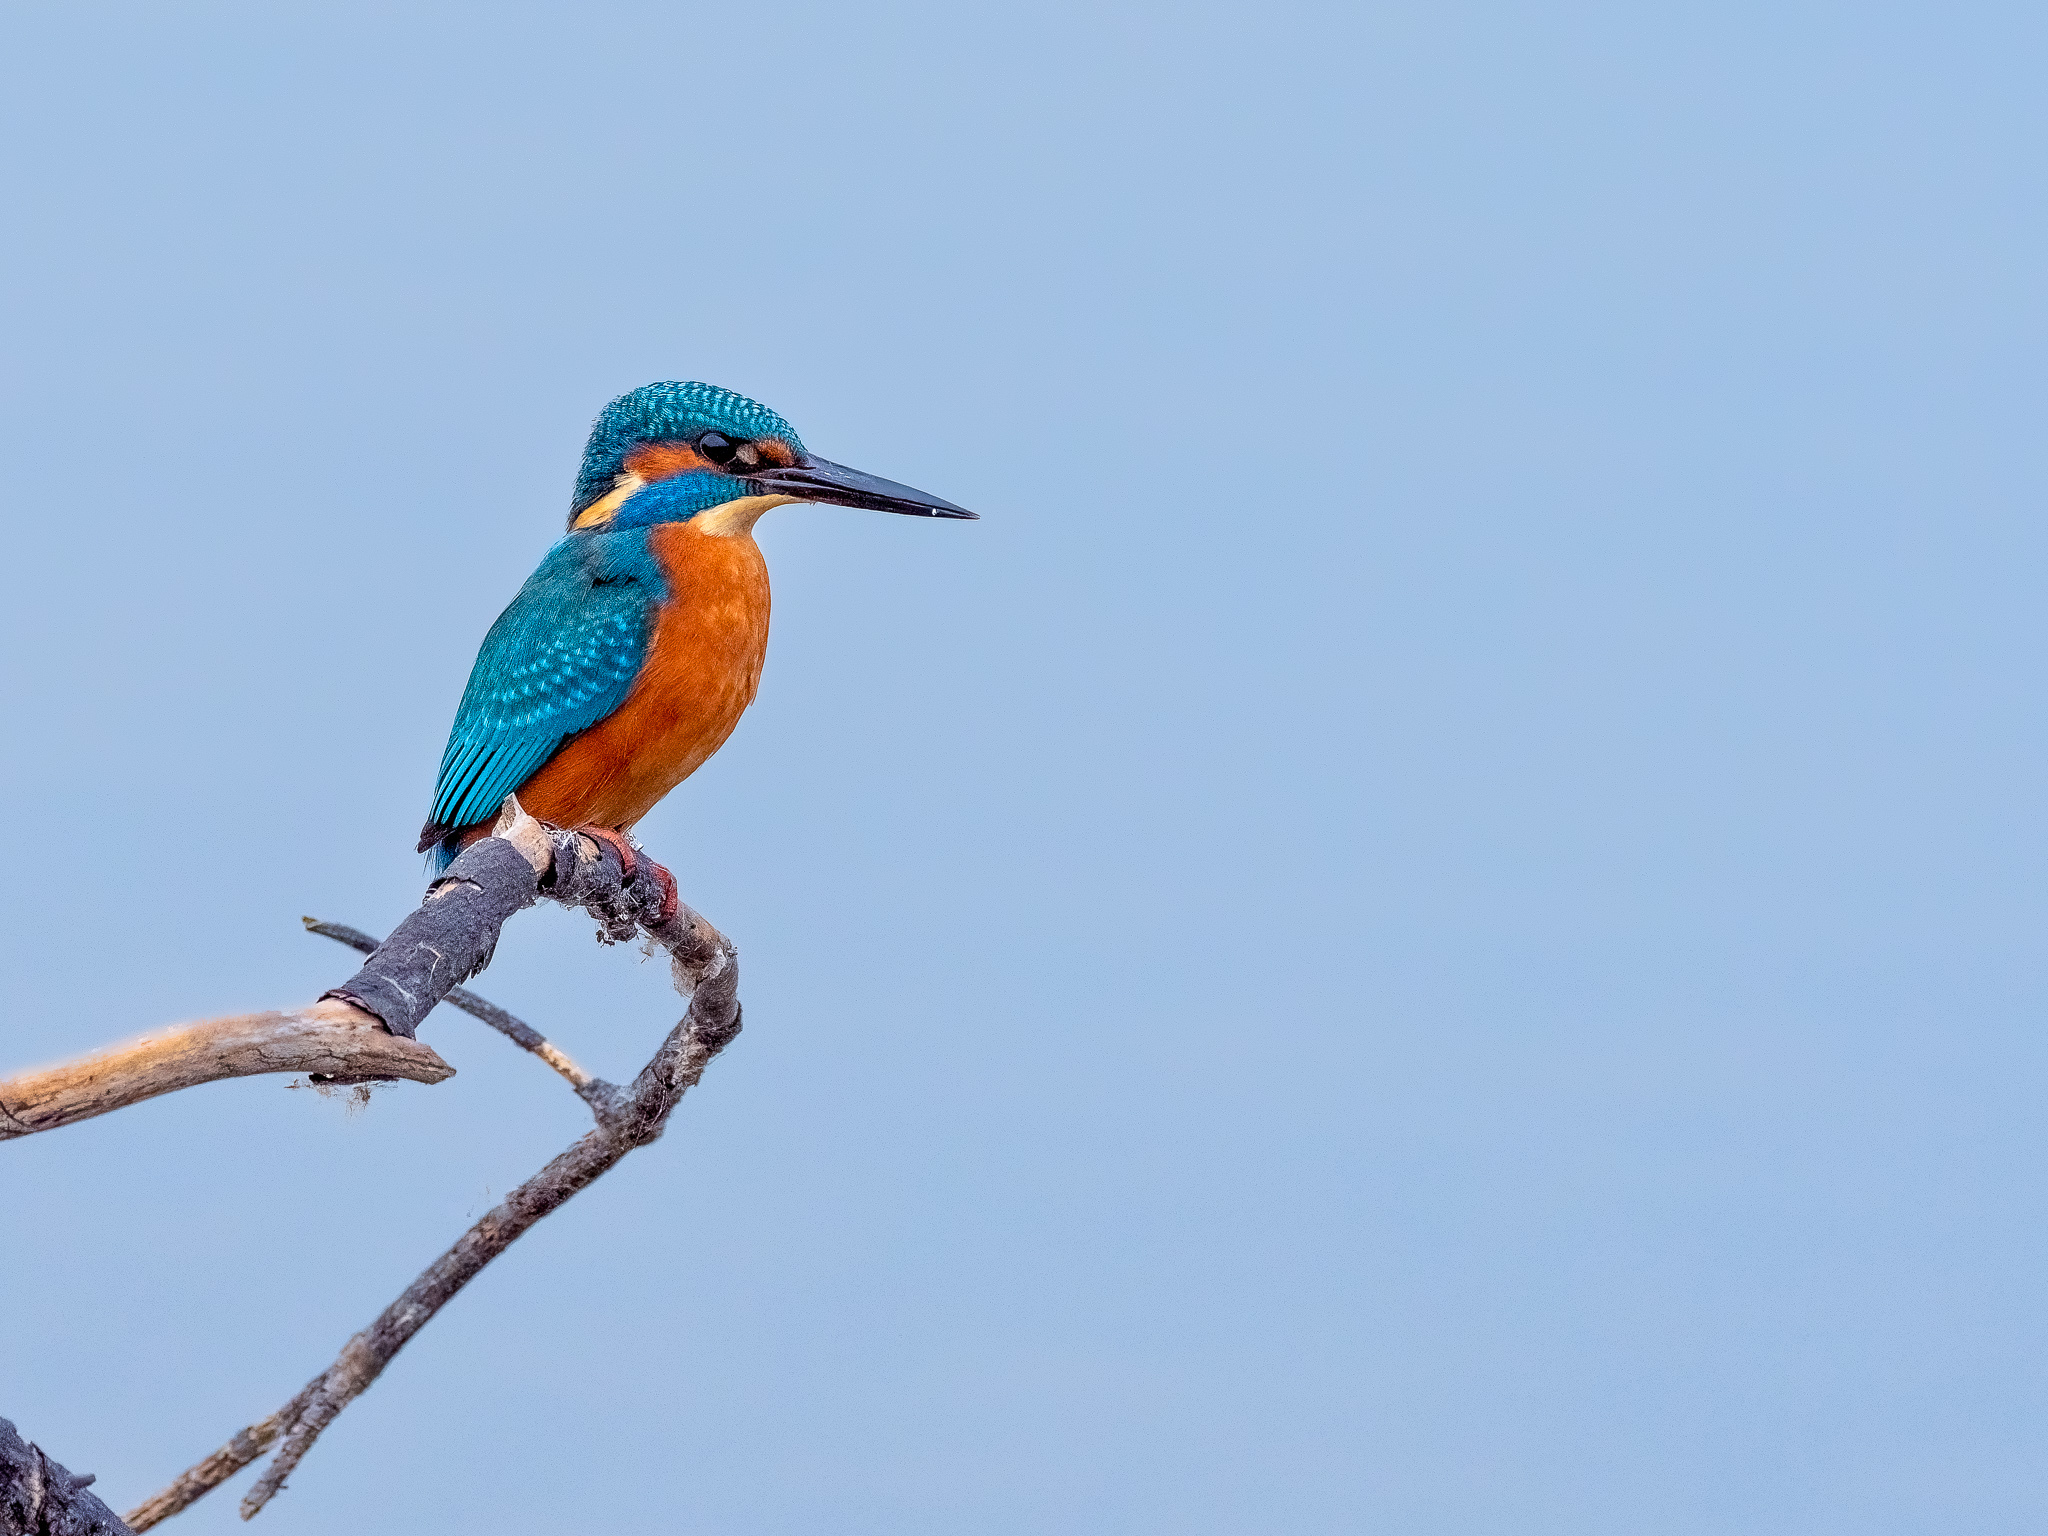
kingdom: Animalia
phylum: Chordata
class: Aves
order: Coraciiformes
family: Alcedinidae
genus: Alcedo
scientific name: Alcedo atthis
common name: Common kingfisher
